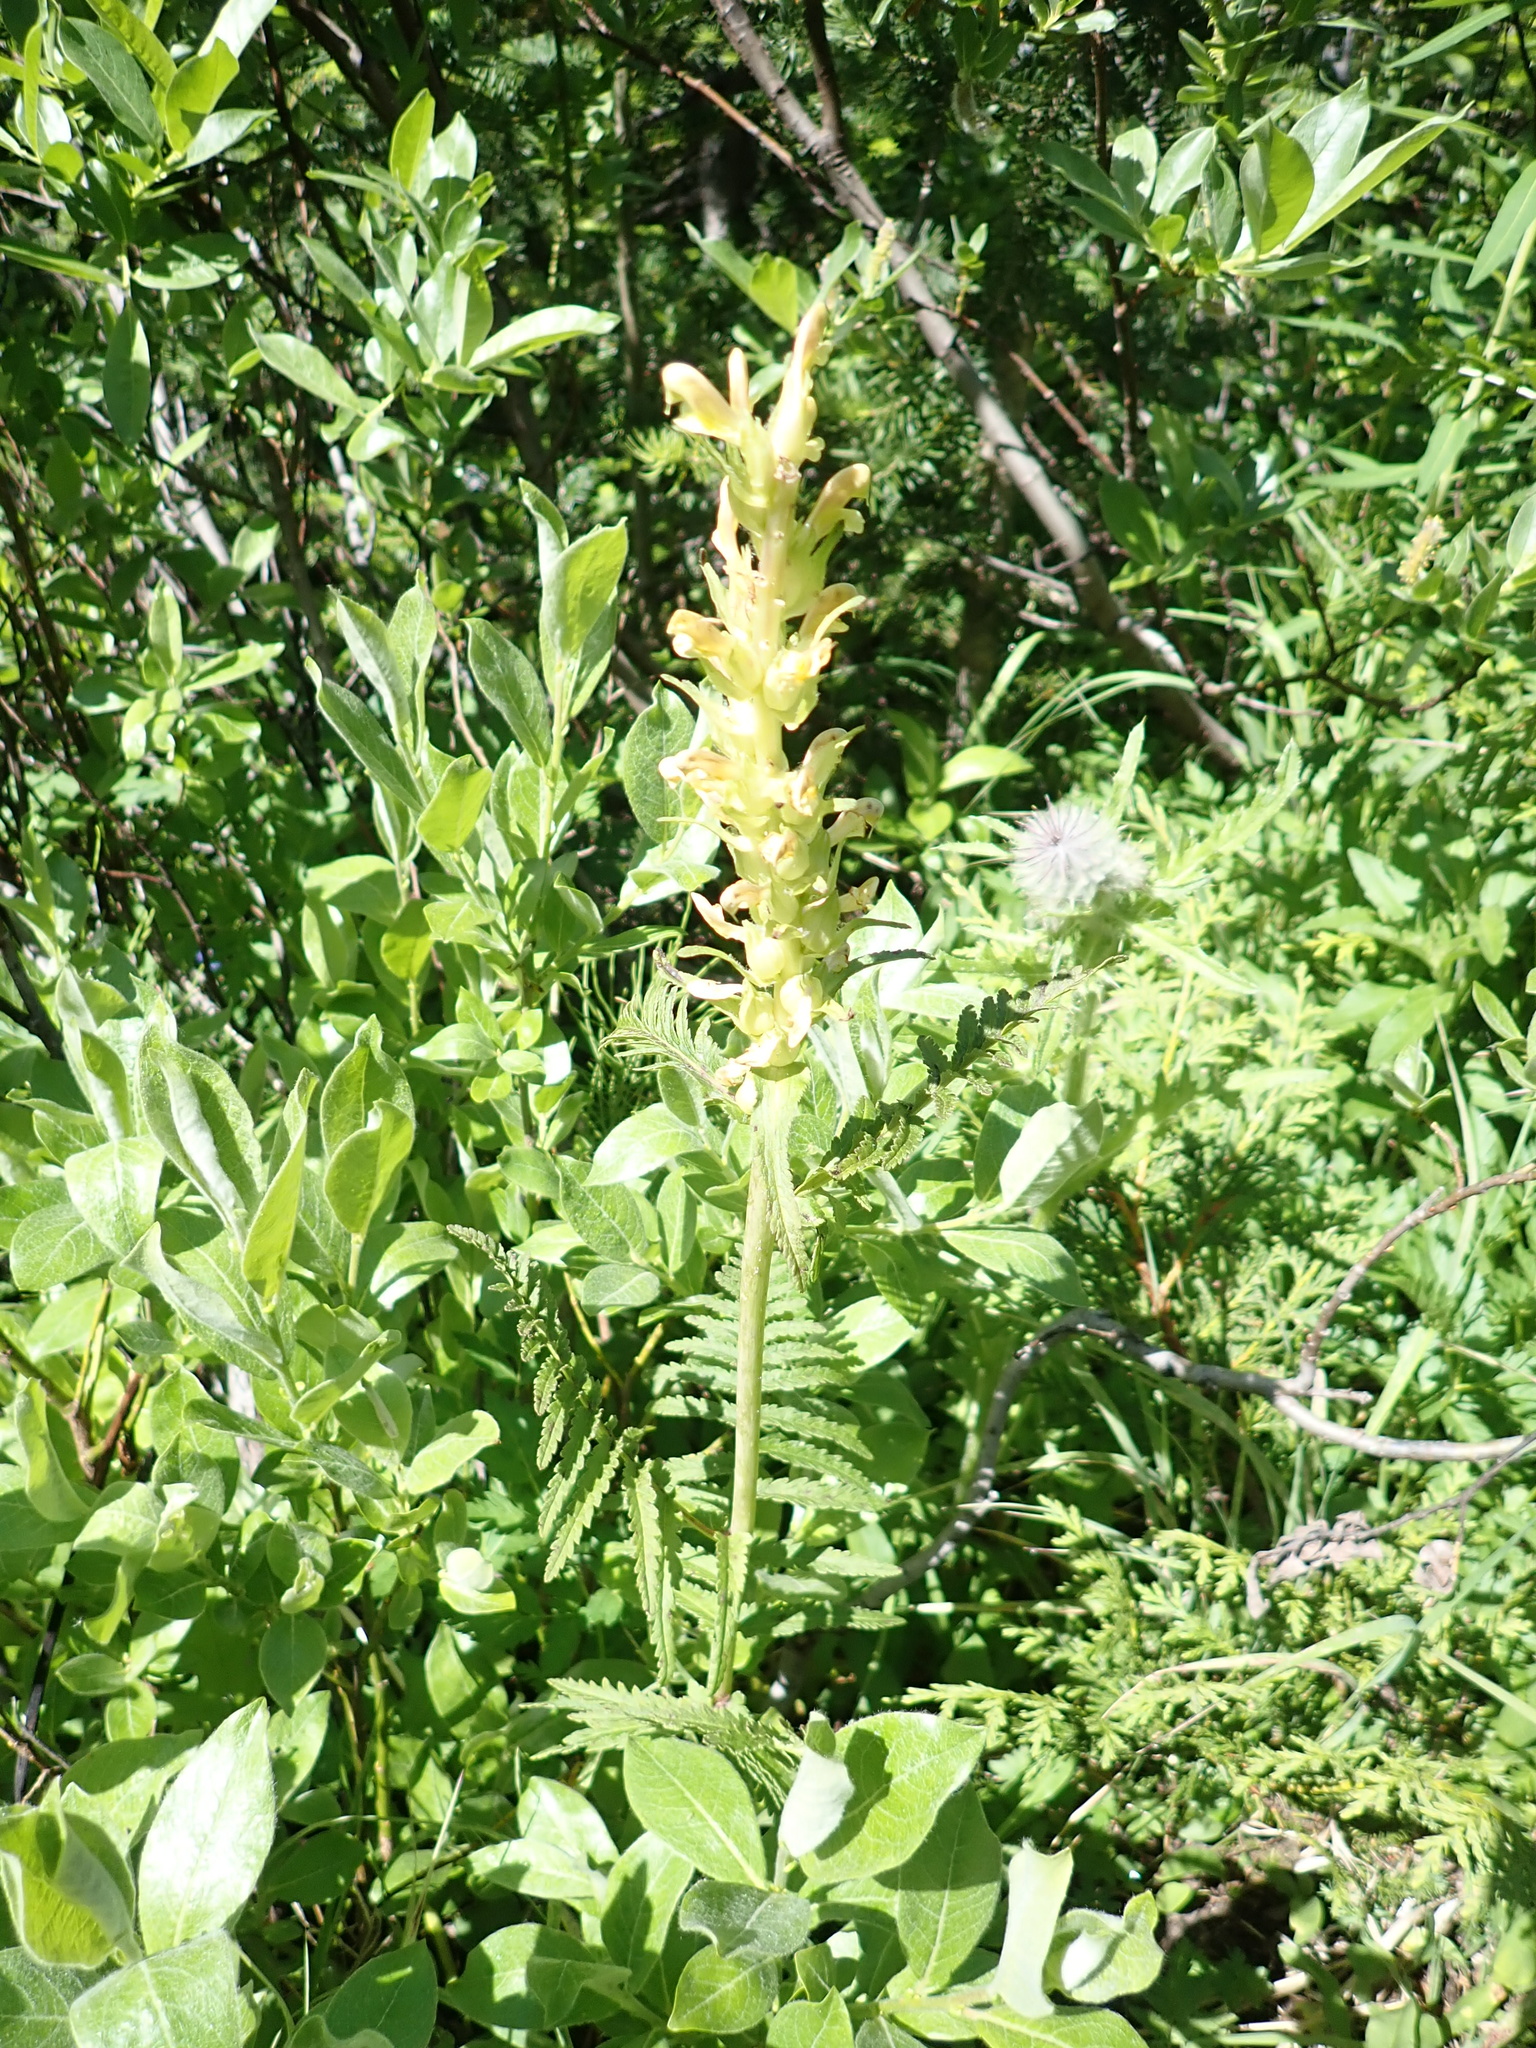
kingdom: Plantae
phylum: Tracheophyta
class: Magnoliopsida
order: Lamiales
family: Orobanchaceae
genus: Pedicularis
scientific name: Pedicularis bracteosa
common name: Bracted lousewort
